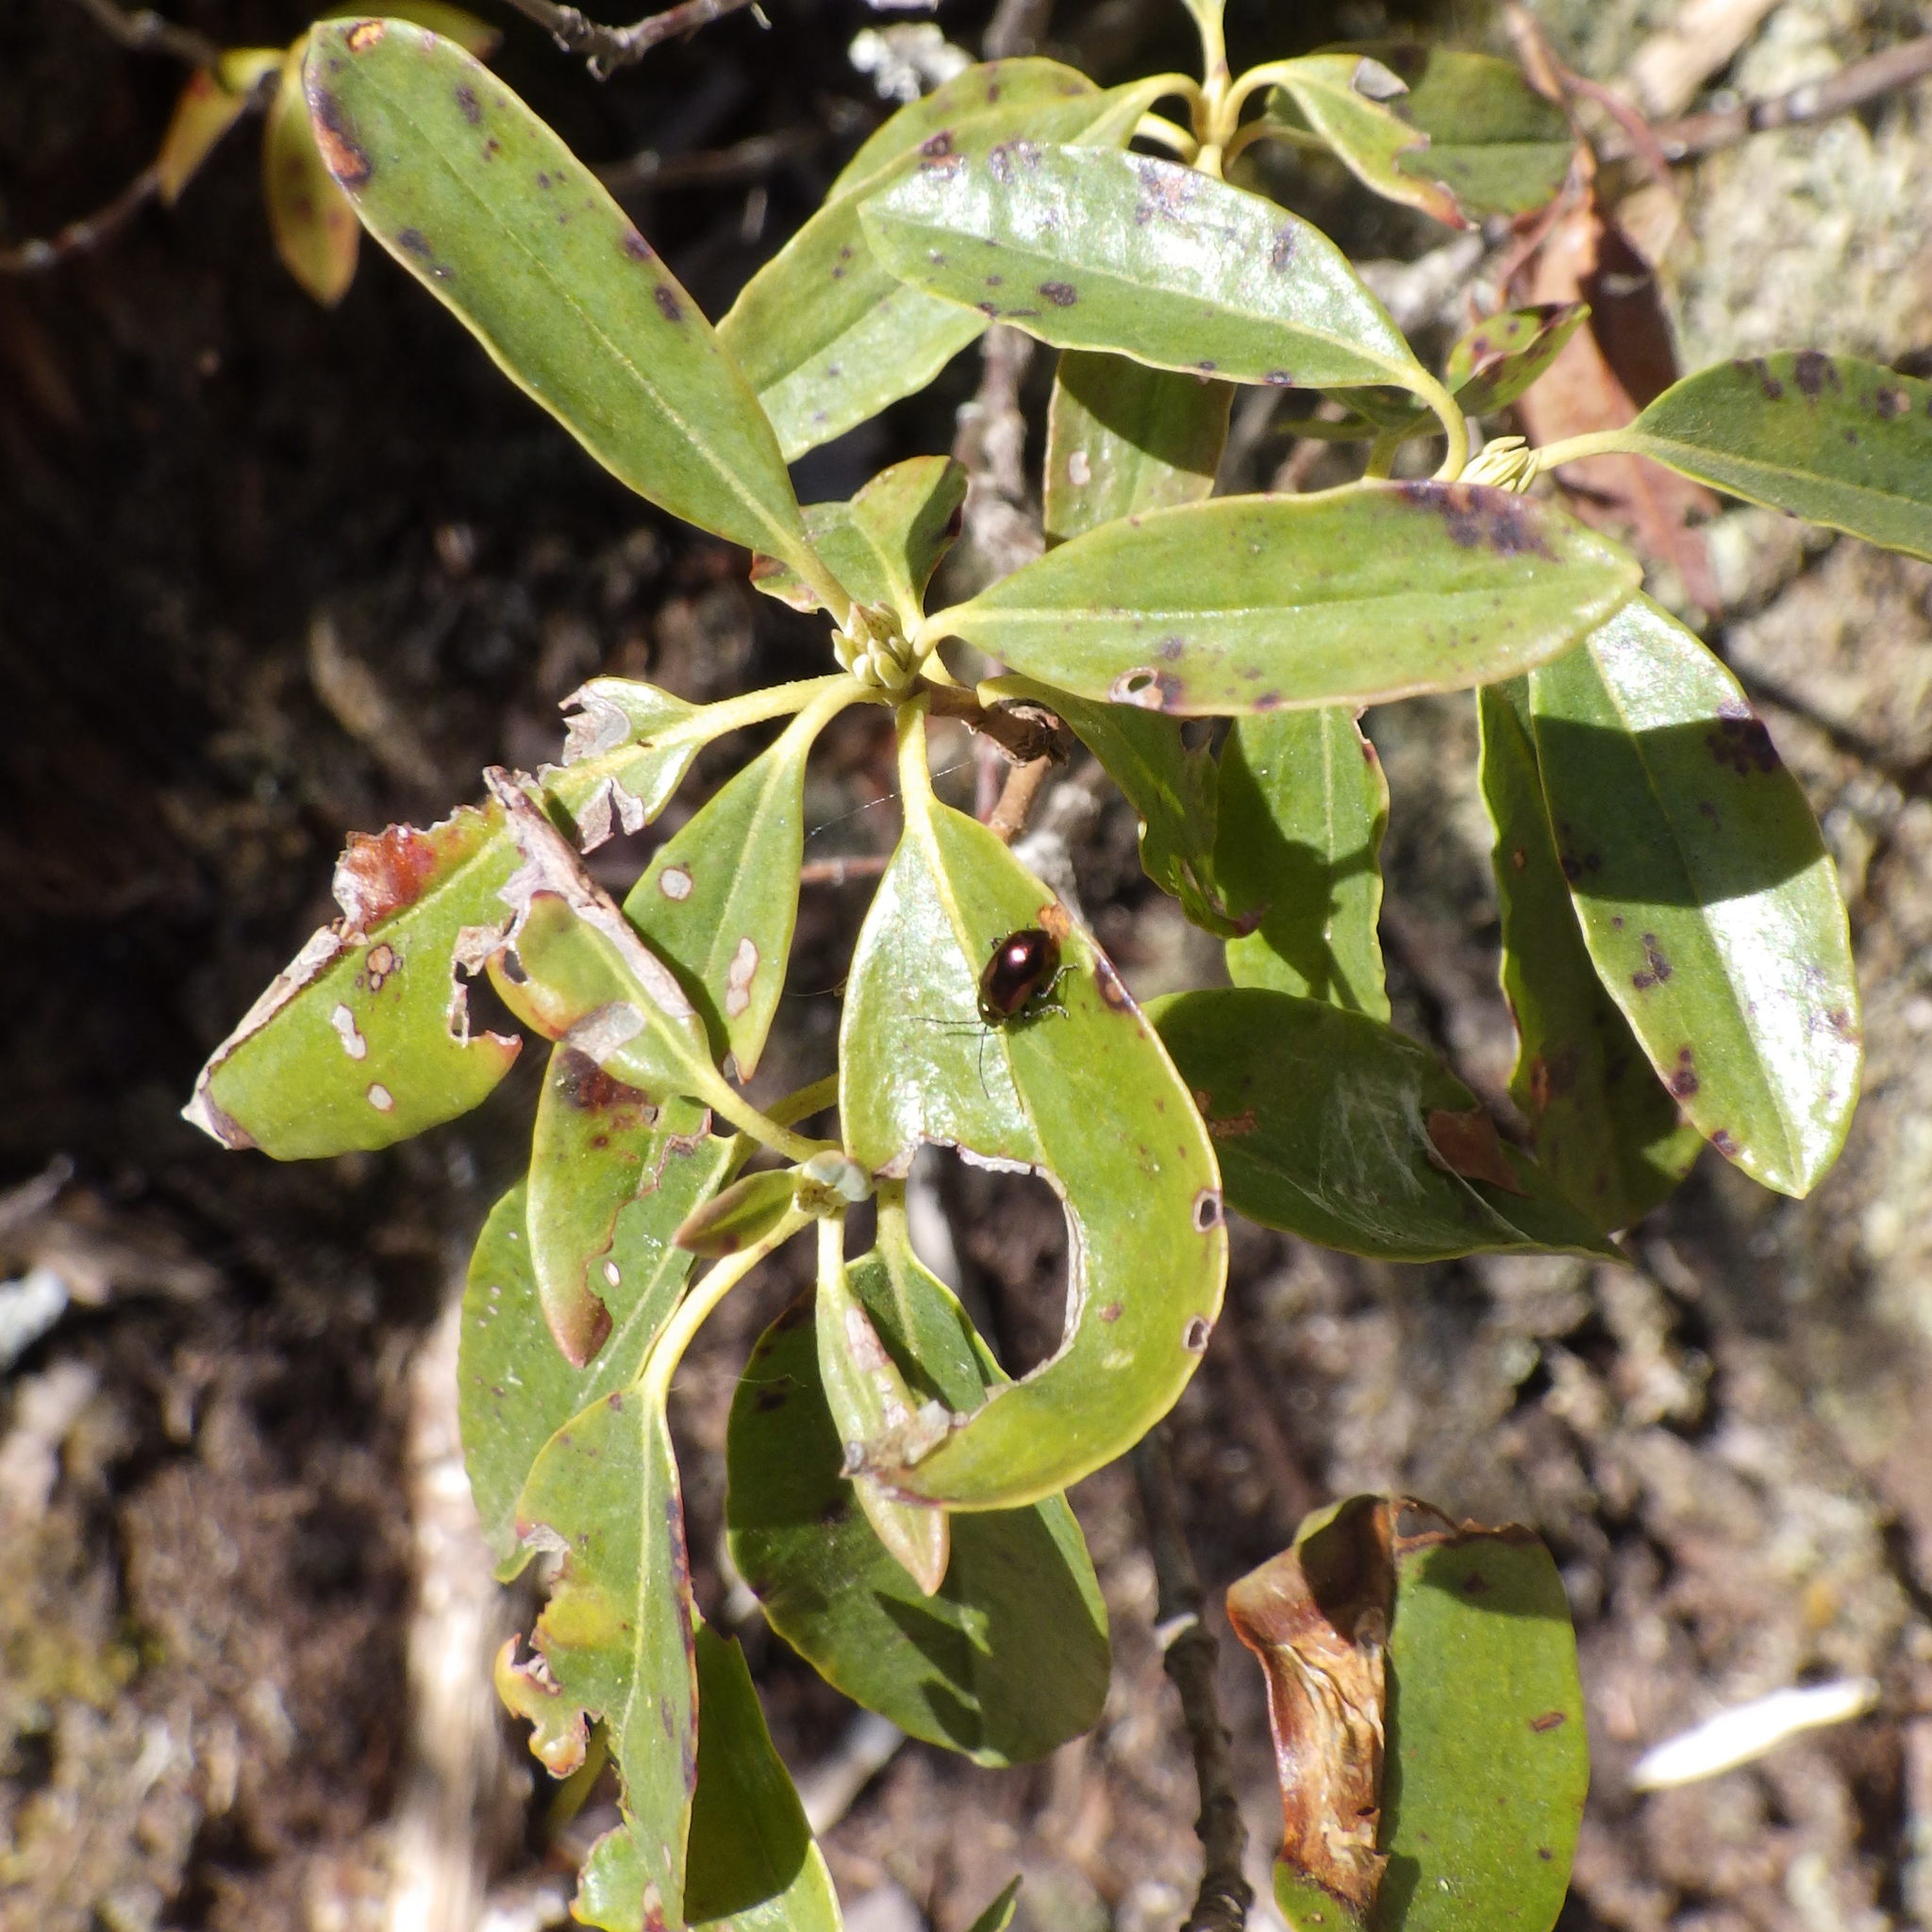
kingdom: Animalia
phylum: Arthropoda
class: Insecta
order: Coleoptera
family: Chrysomelidae
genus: Altica
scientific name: Altica kalmiae
